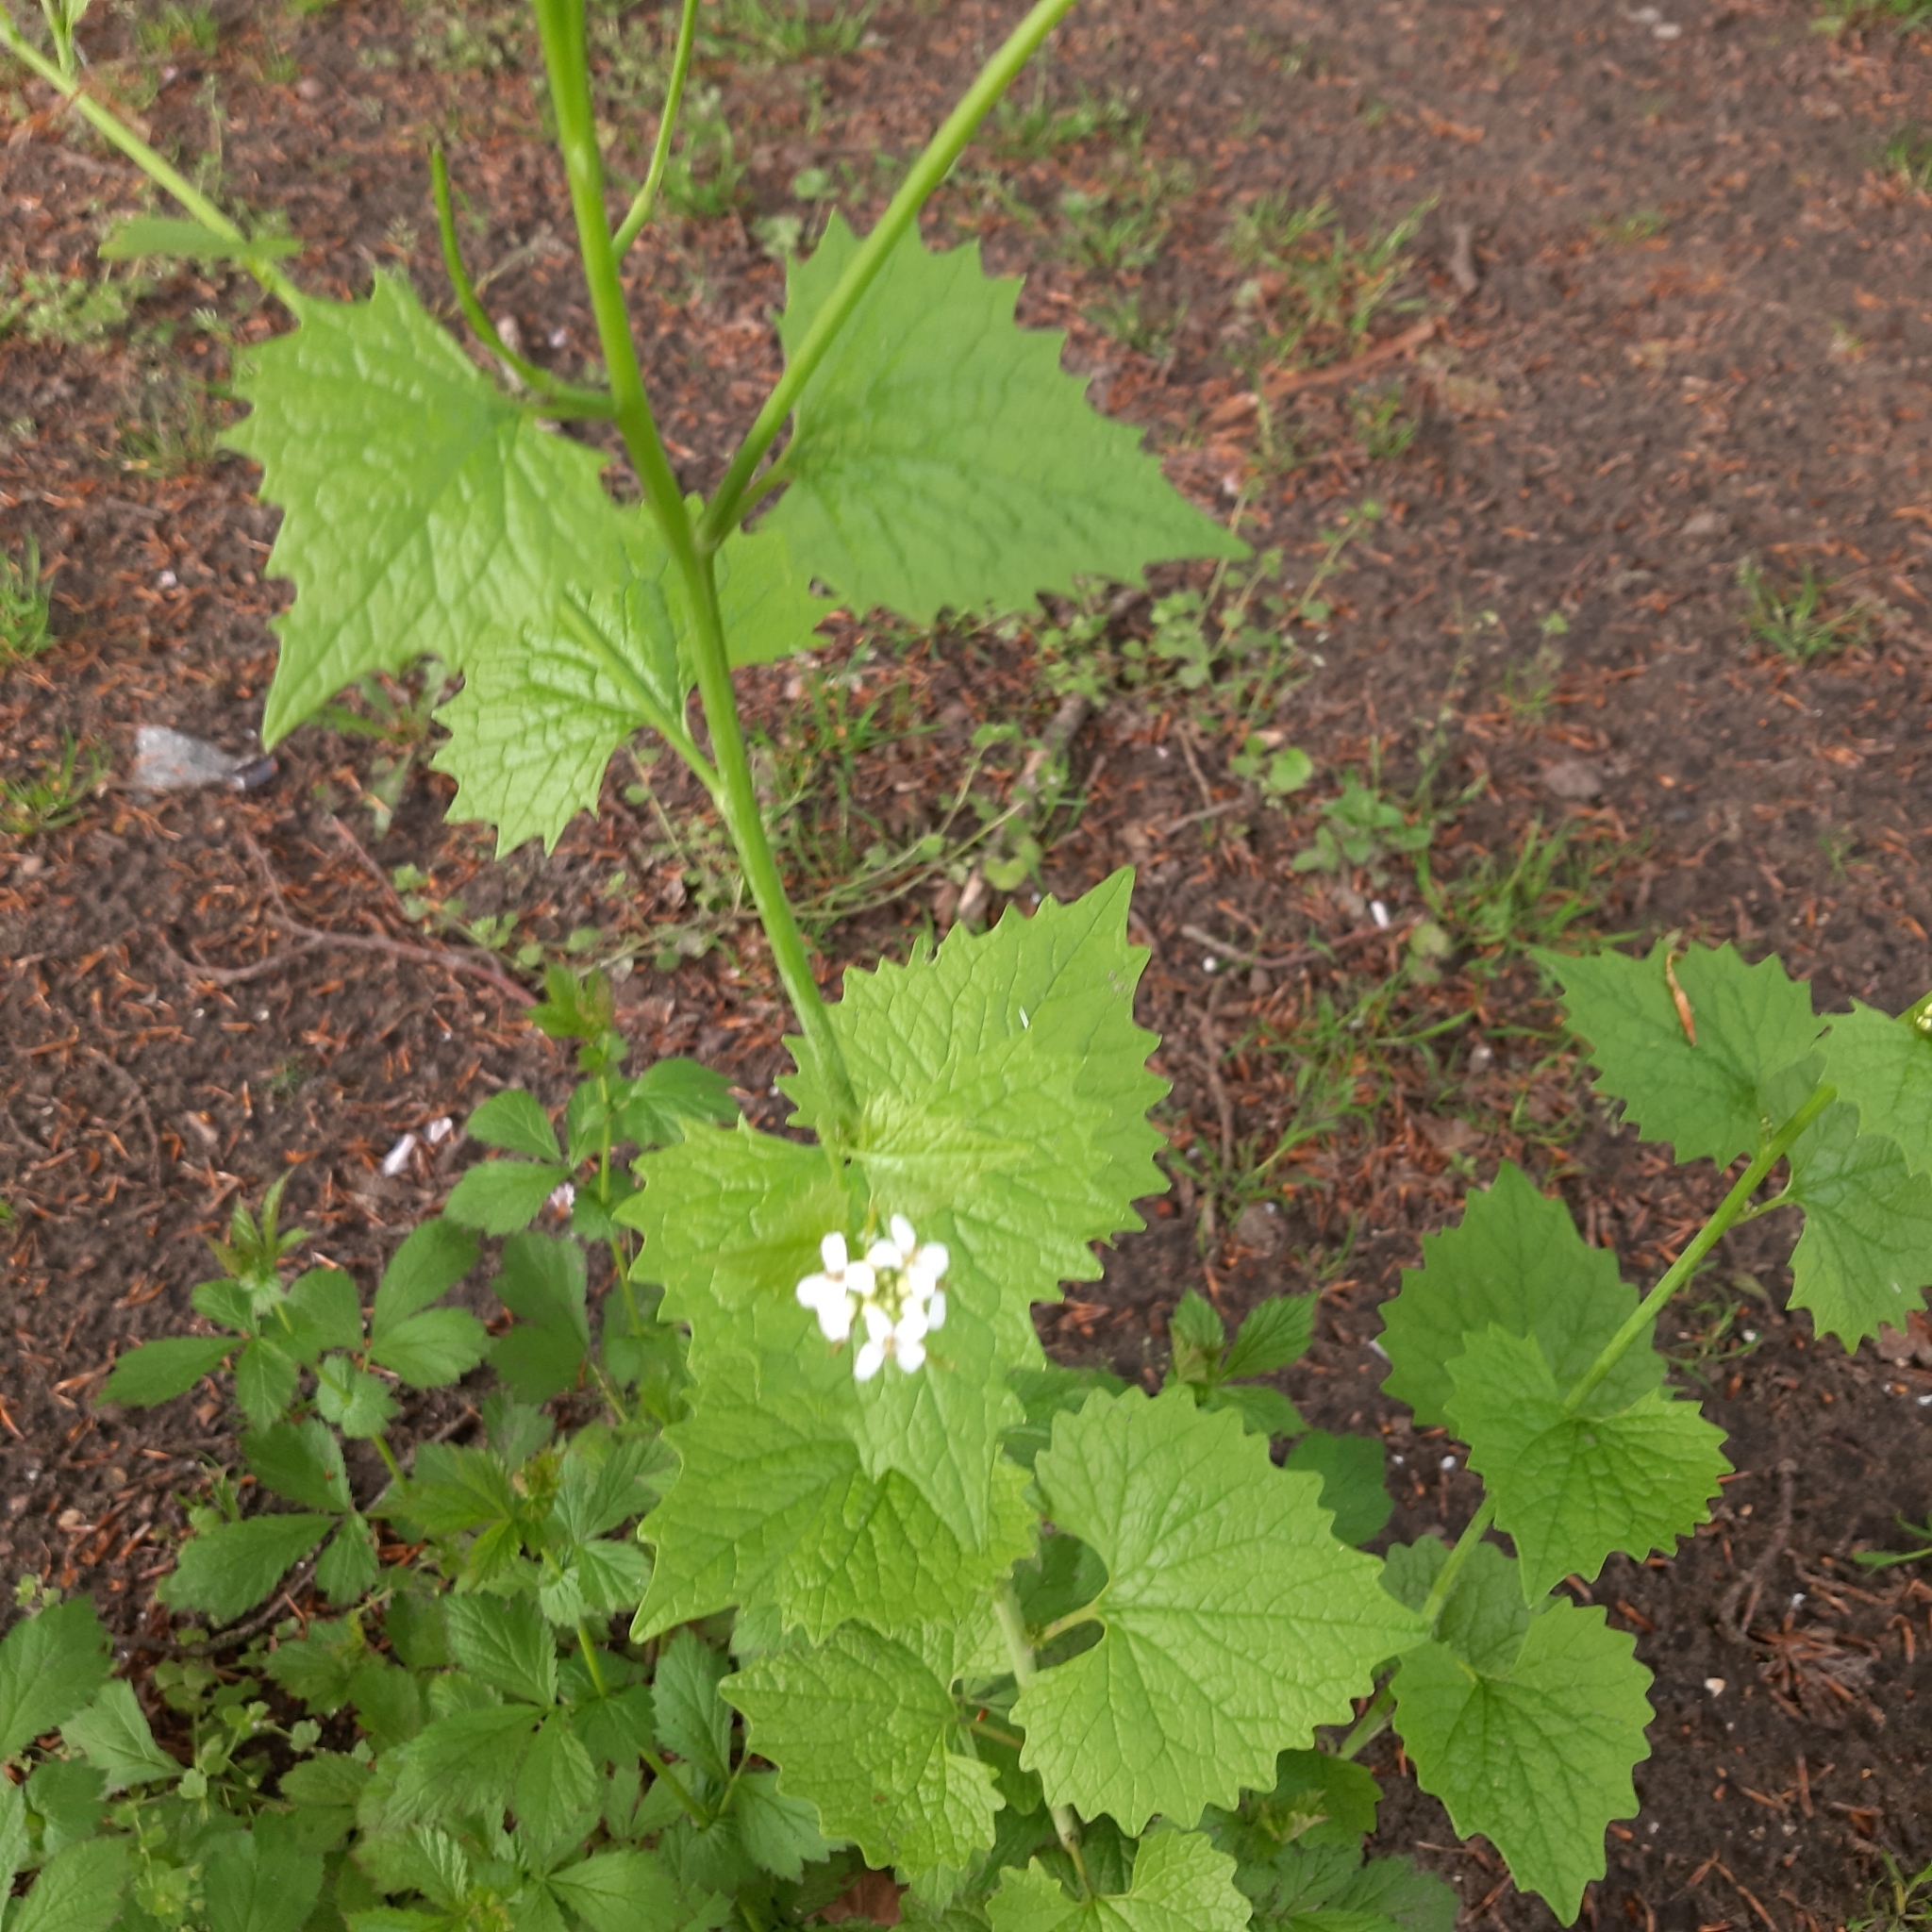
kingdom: Plantae
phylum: Tracheophyta
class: Magnoliopsida
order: Brassicales
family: Brassicaceae
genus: Alliaria
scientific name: Alliaria petiolata
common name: Garlic mustard
